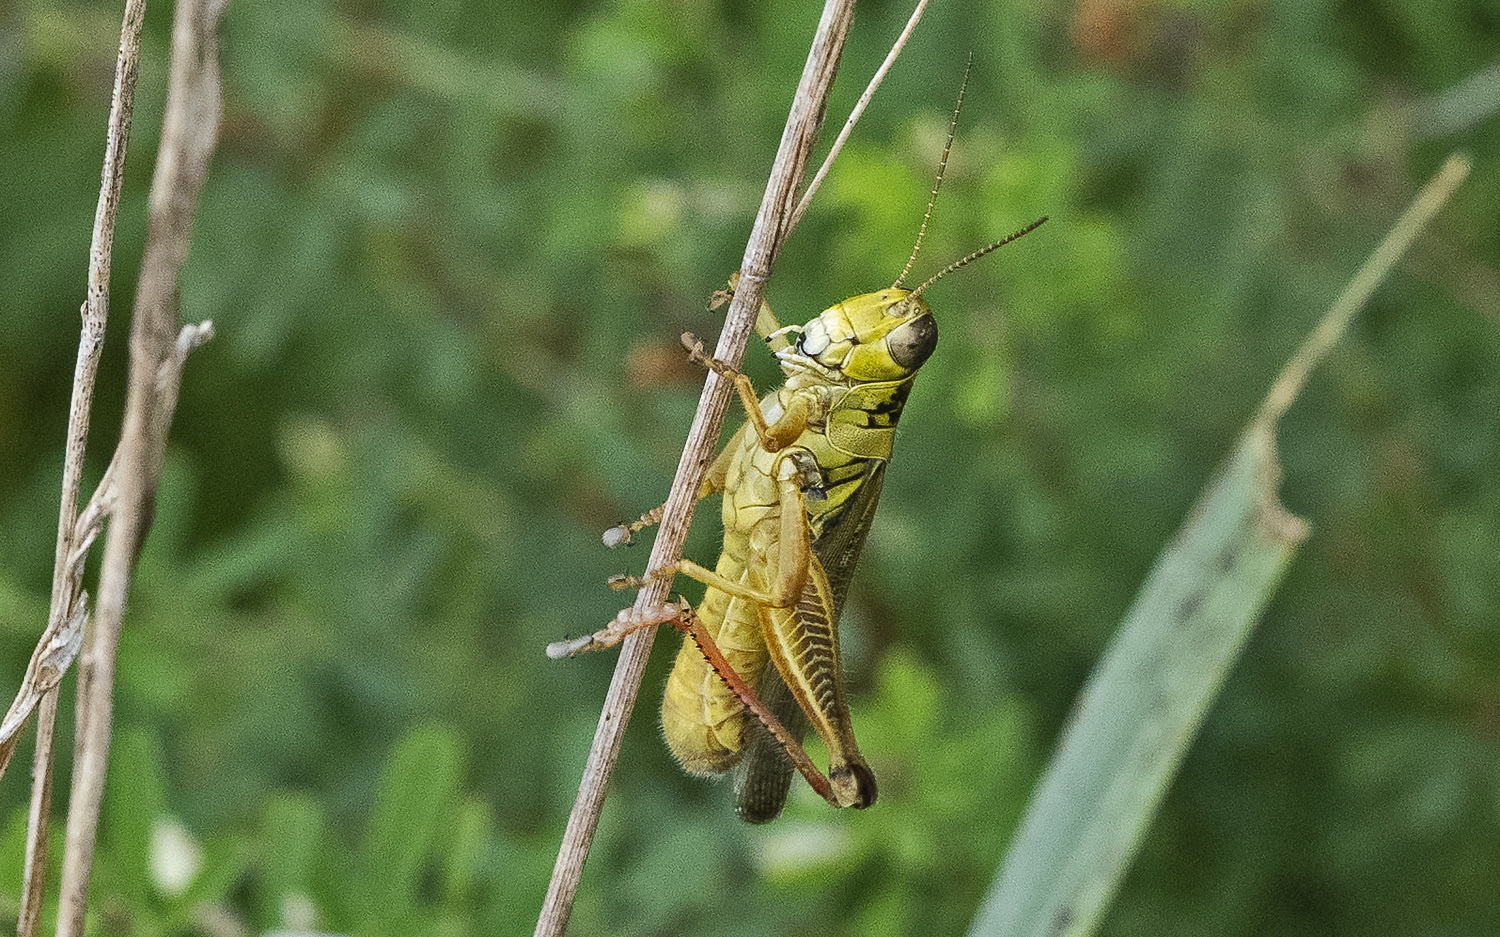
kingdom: Animalia
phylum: Arthropoda
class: Insecta
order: Orthoptera
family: Acrididae
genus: Melanoplus
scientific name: Melanoplus differentialis
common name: Differential grasshopper
